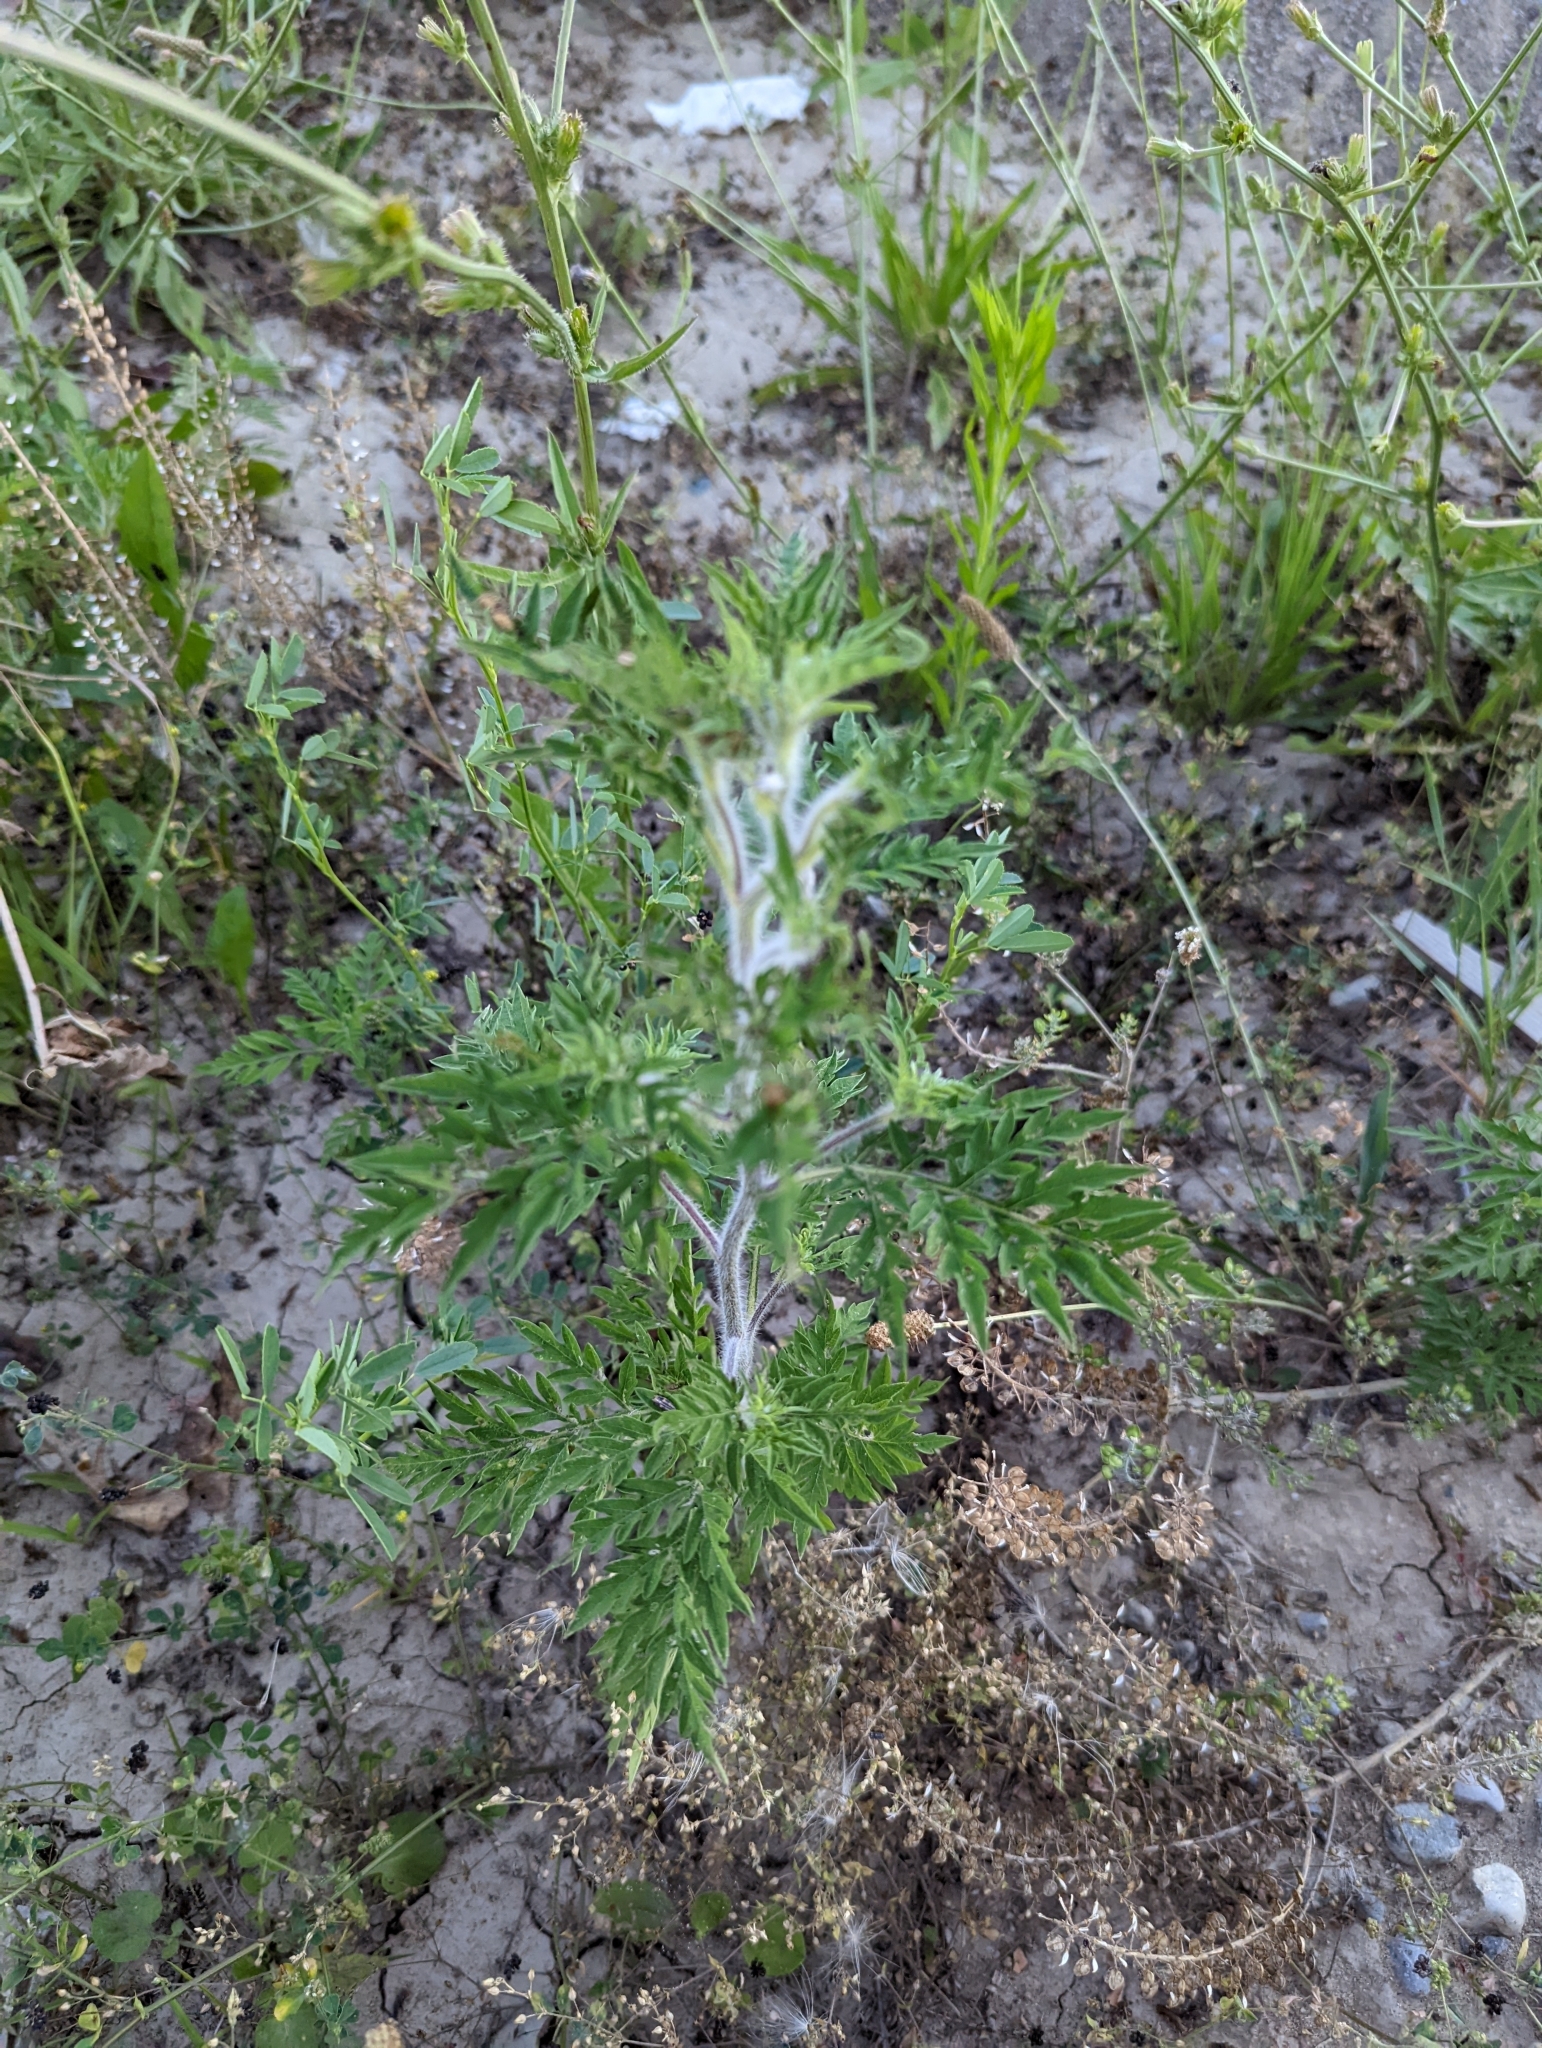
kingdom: Plantae
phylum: Tracheophyta
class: Magnoliopsida
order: Asterales
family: Asteraceae
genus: Ambrosia
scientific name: Ambrosia artemisiifolia
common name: Annual ragweed
